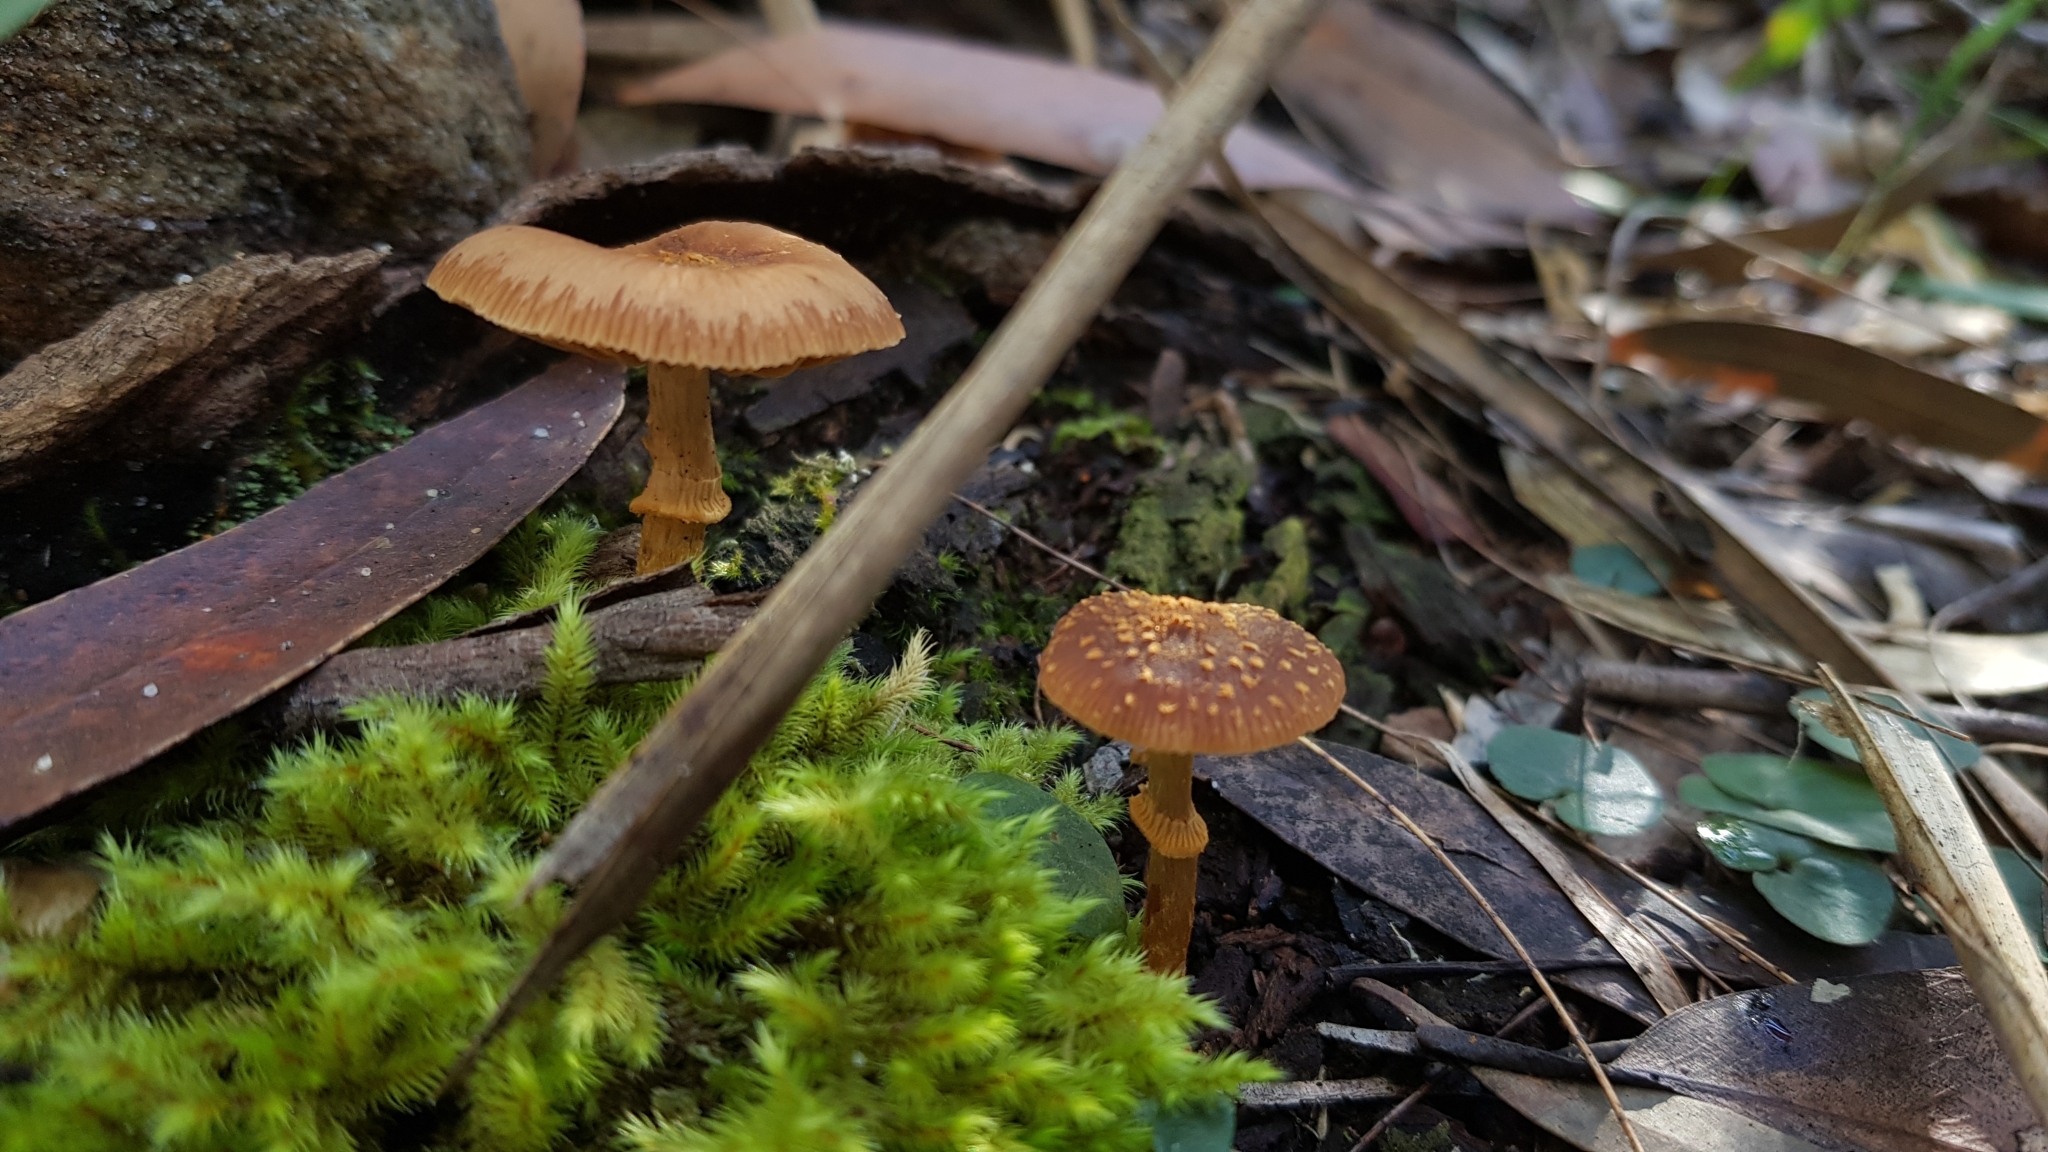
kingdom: Fungi
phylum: Basidiomycota
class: Agaricomycetes
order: Agaricales
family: Bolbitiaceae
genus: Descolea
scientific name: Descolea recedens
